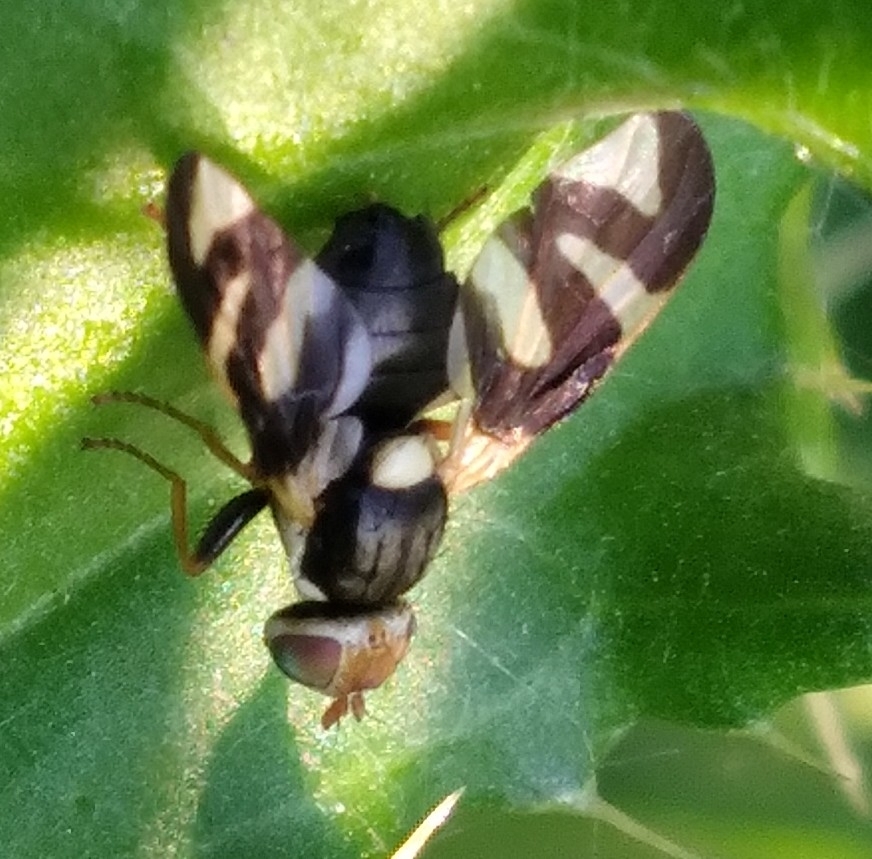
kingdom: Animalia
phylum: Arthropoda
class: Insecta
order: Diptera
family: Tephritidae
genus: Urophora
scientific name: Urophora cardui
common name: Fruit fly
